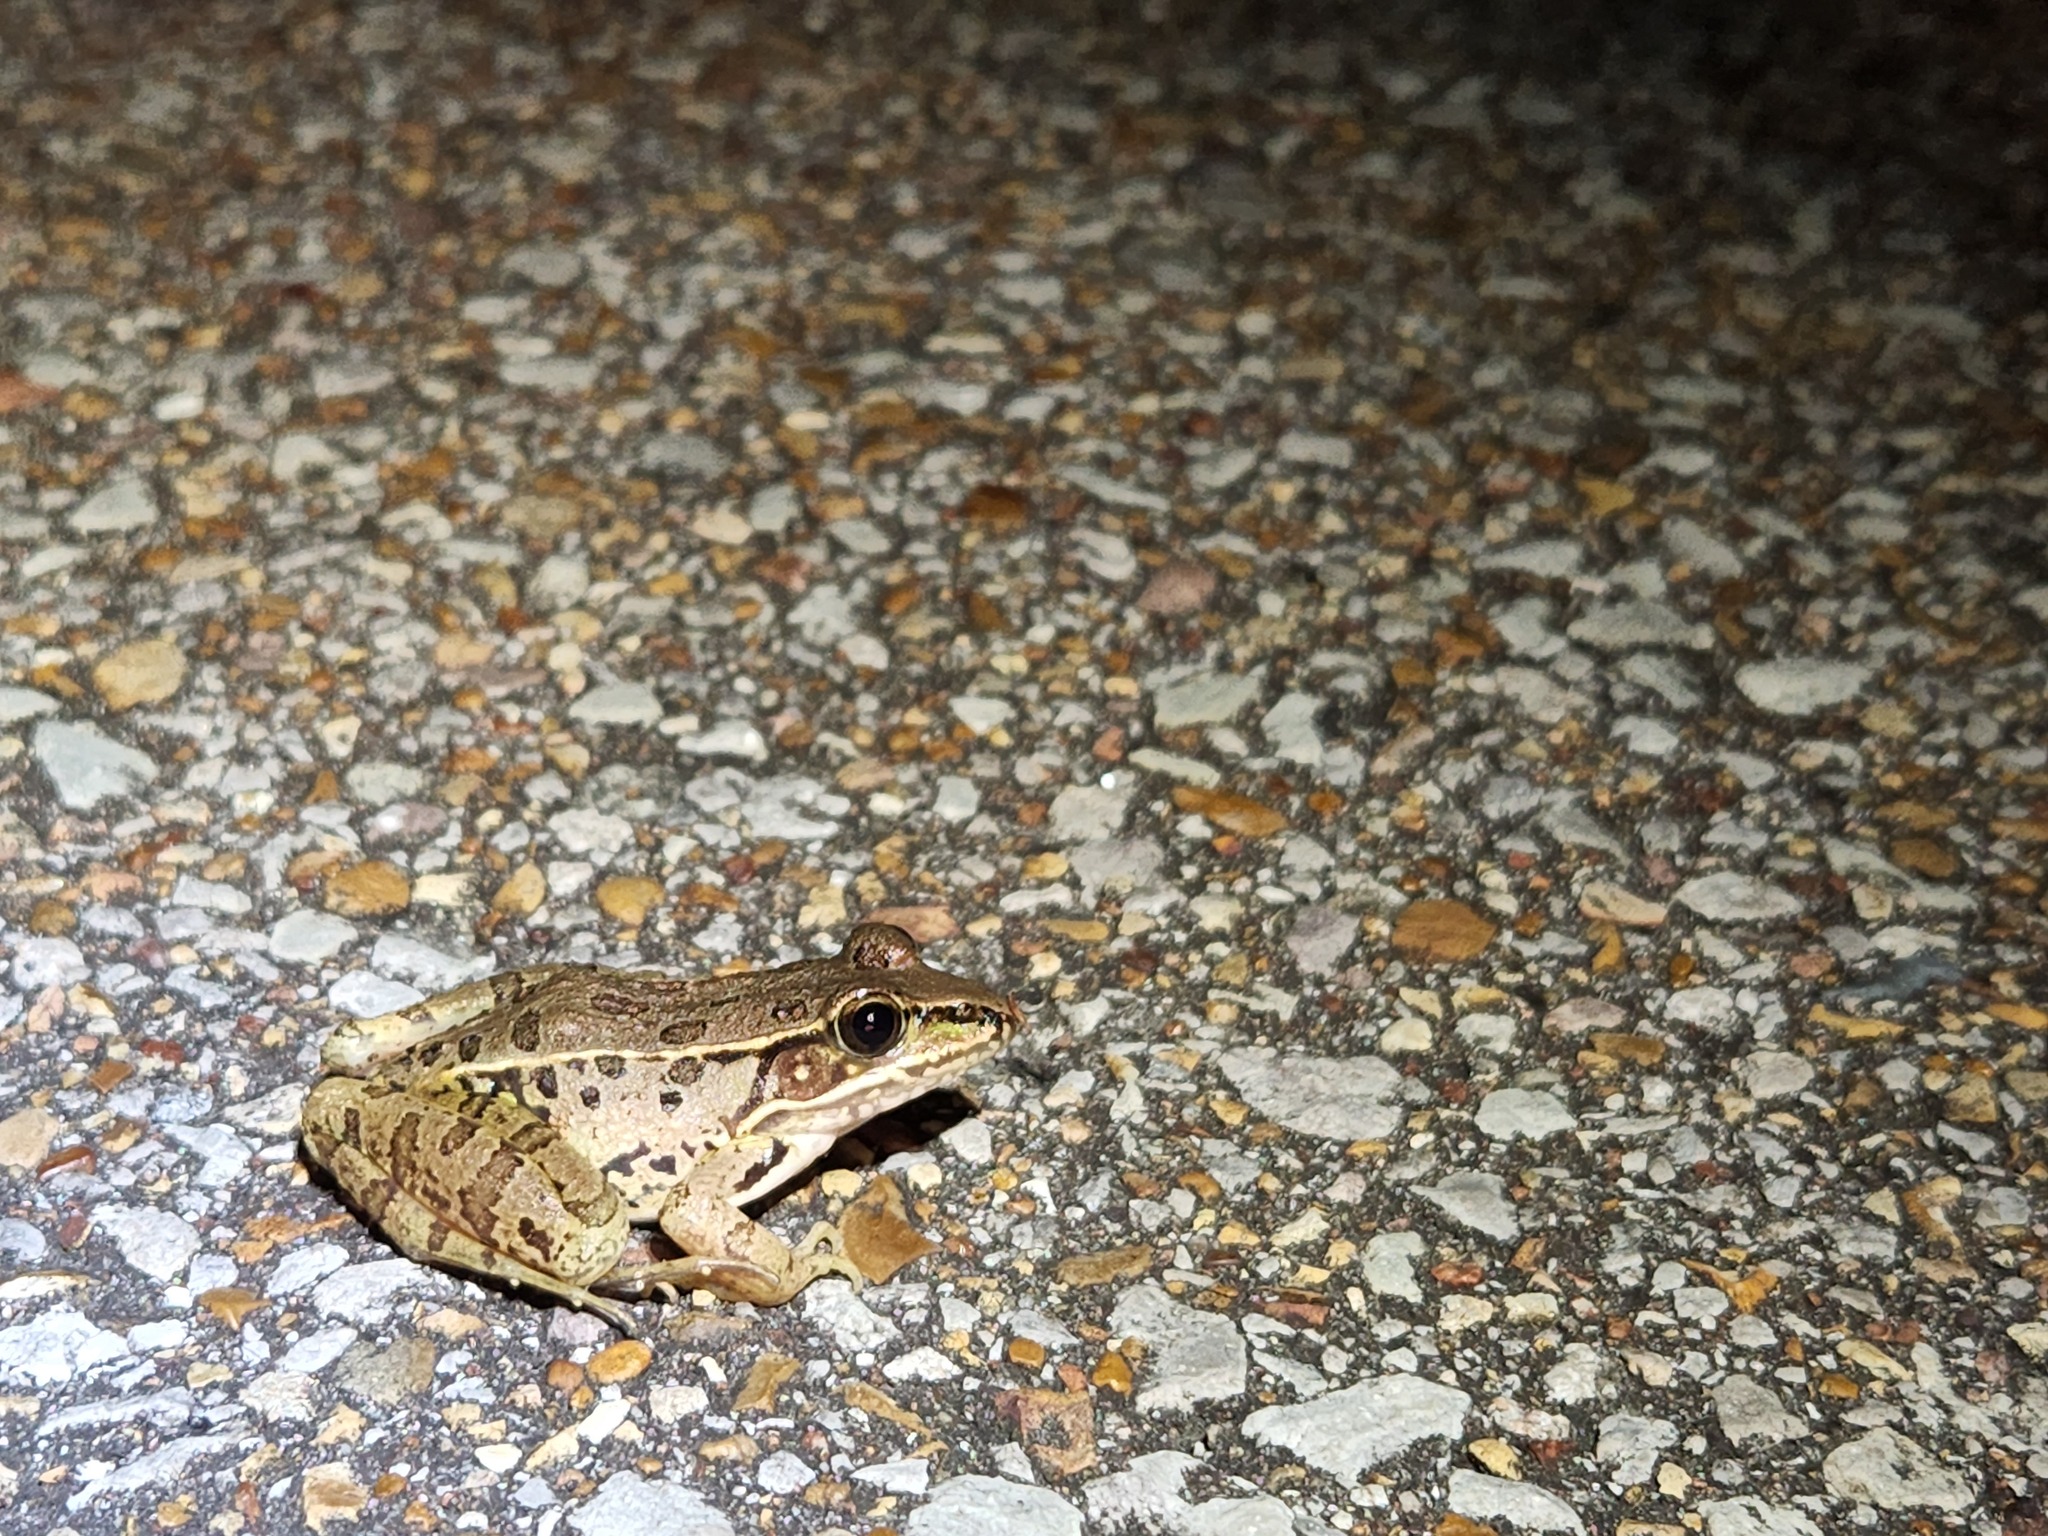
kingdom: Animalia
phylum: Chordata
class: Amphibia
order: Anura
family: Ranidae
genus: Lithobates
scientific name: Lithobates sphenocephalus
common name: Southern leopard frog
